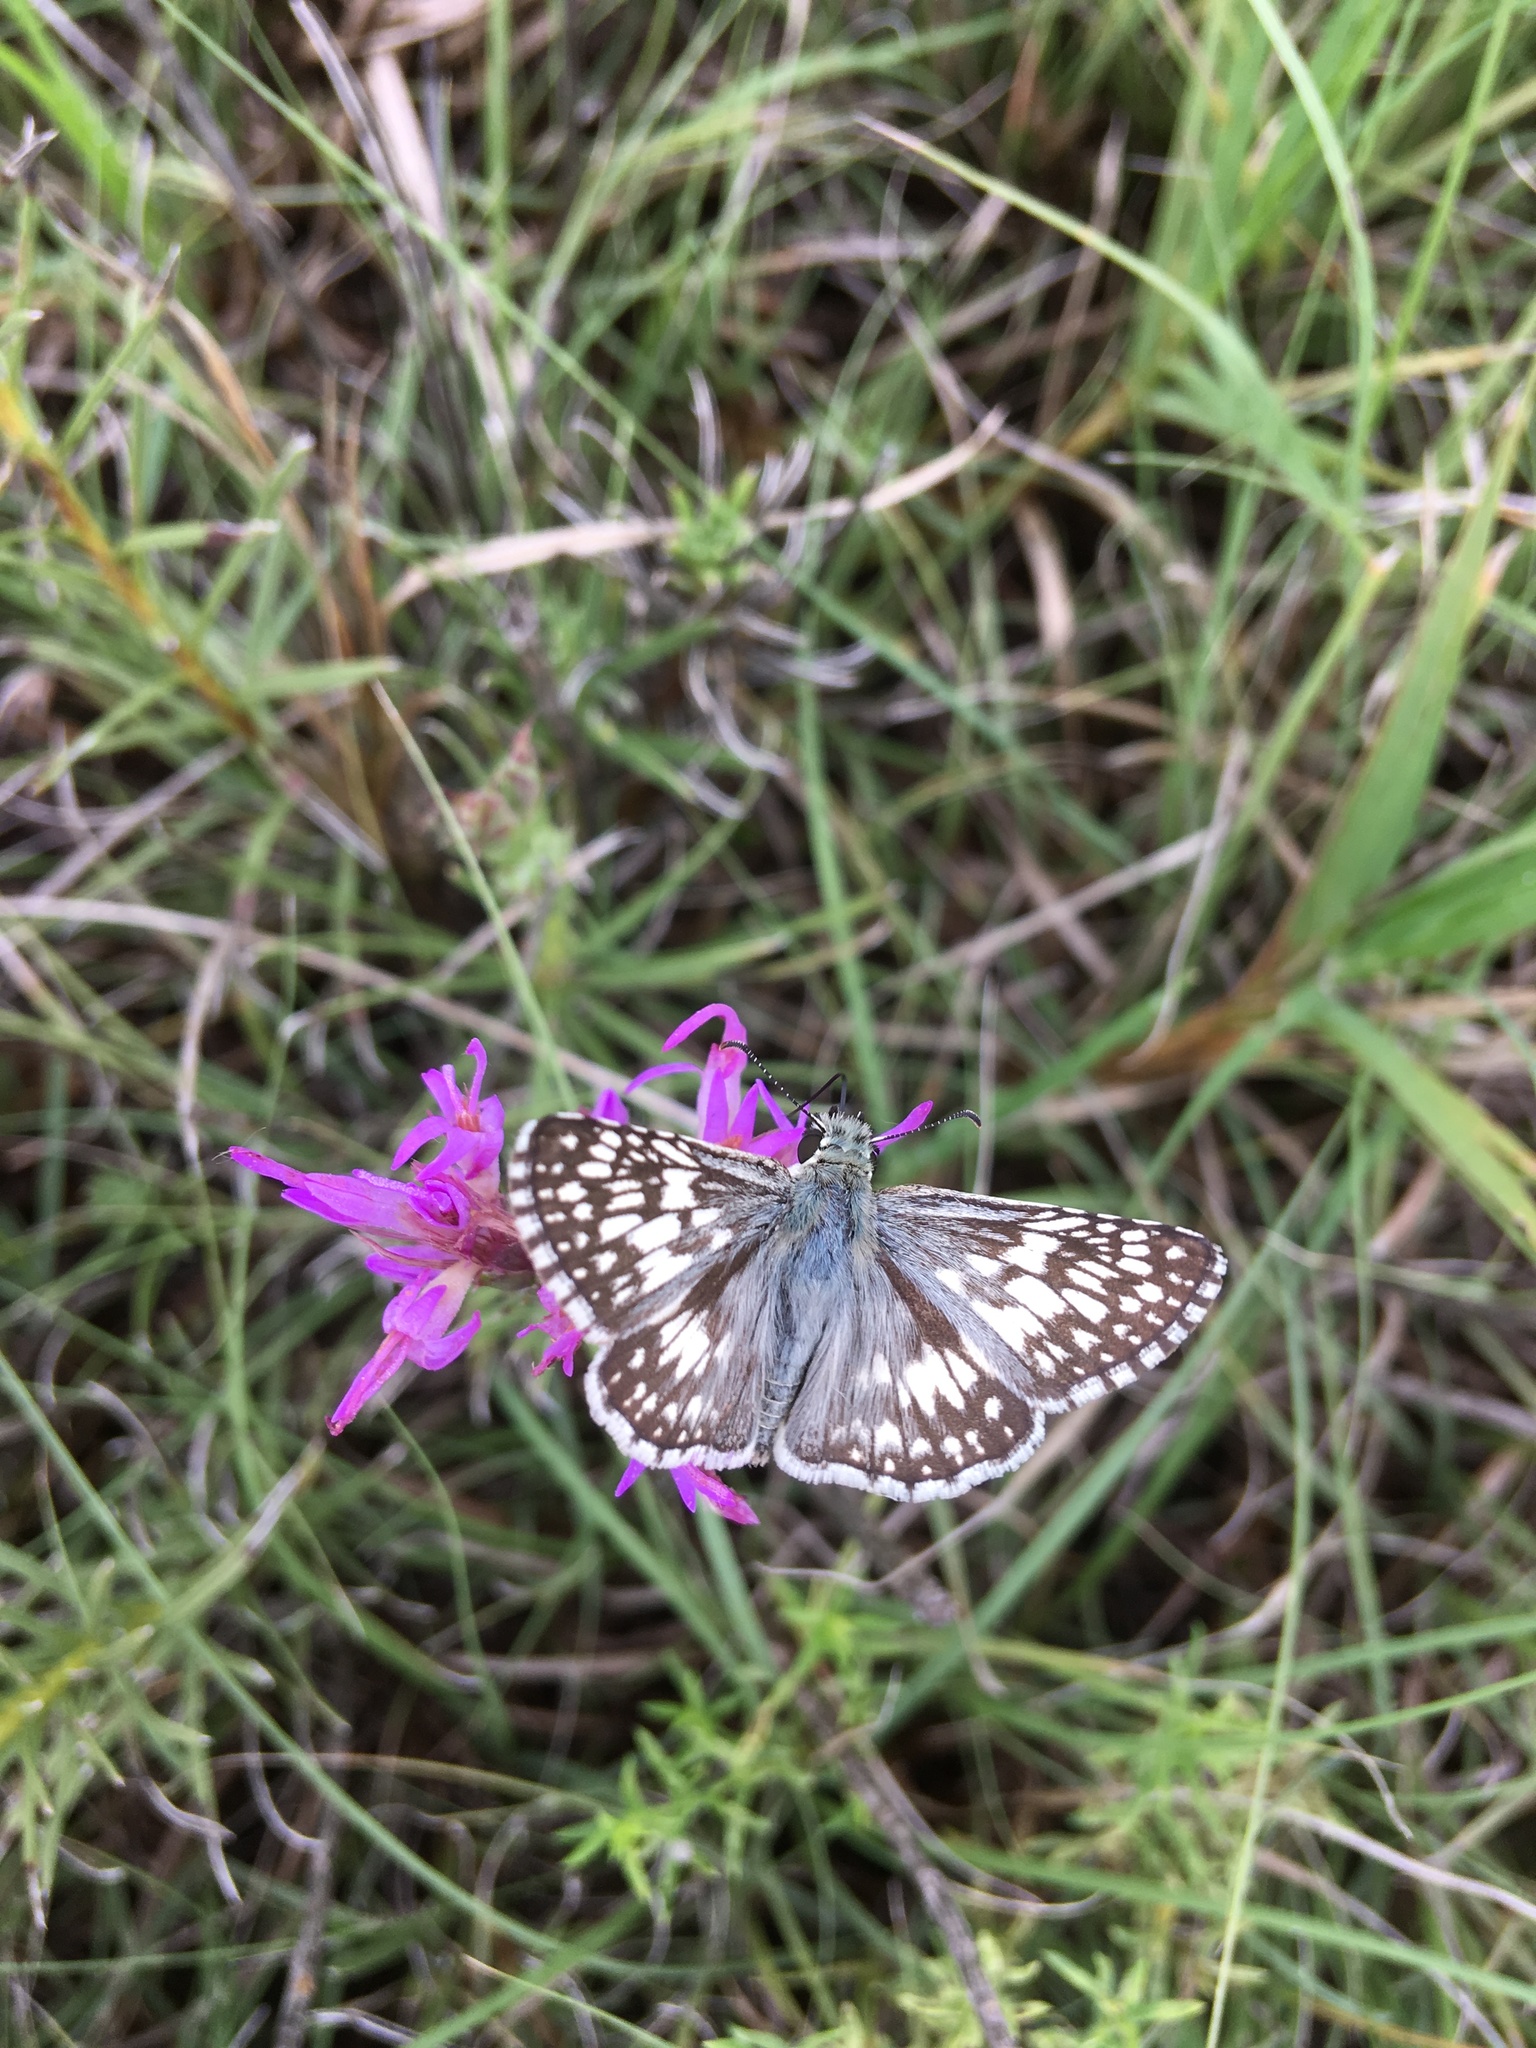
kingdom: Animalia
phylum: Arthropoda
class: Insecta
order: Lepidoptera
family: Hesperiidae
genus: Burnsius
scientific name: Burnsius communis
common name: Common checkered-skipper
